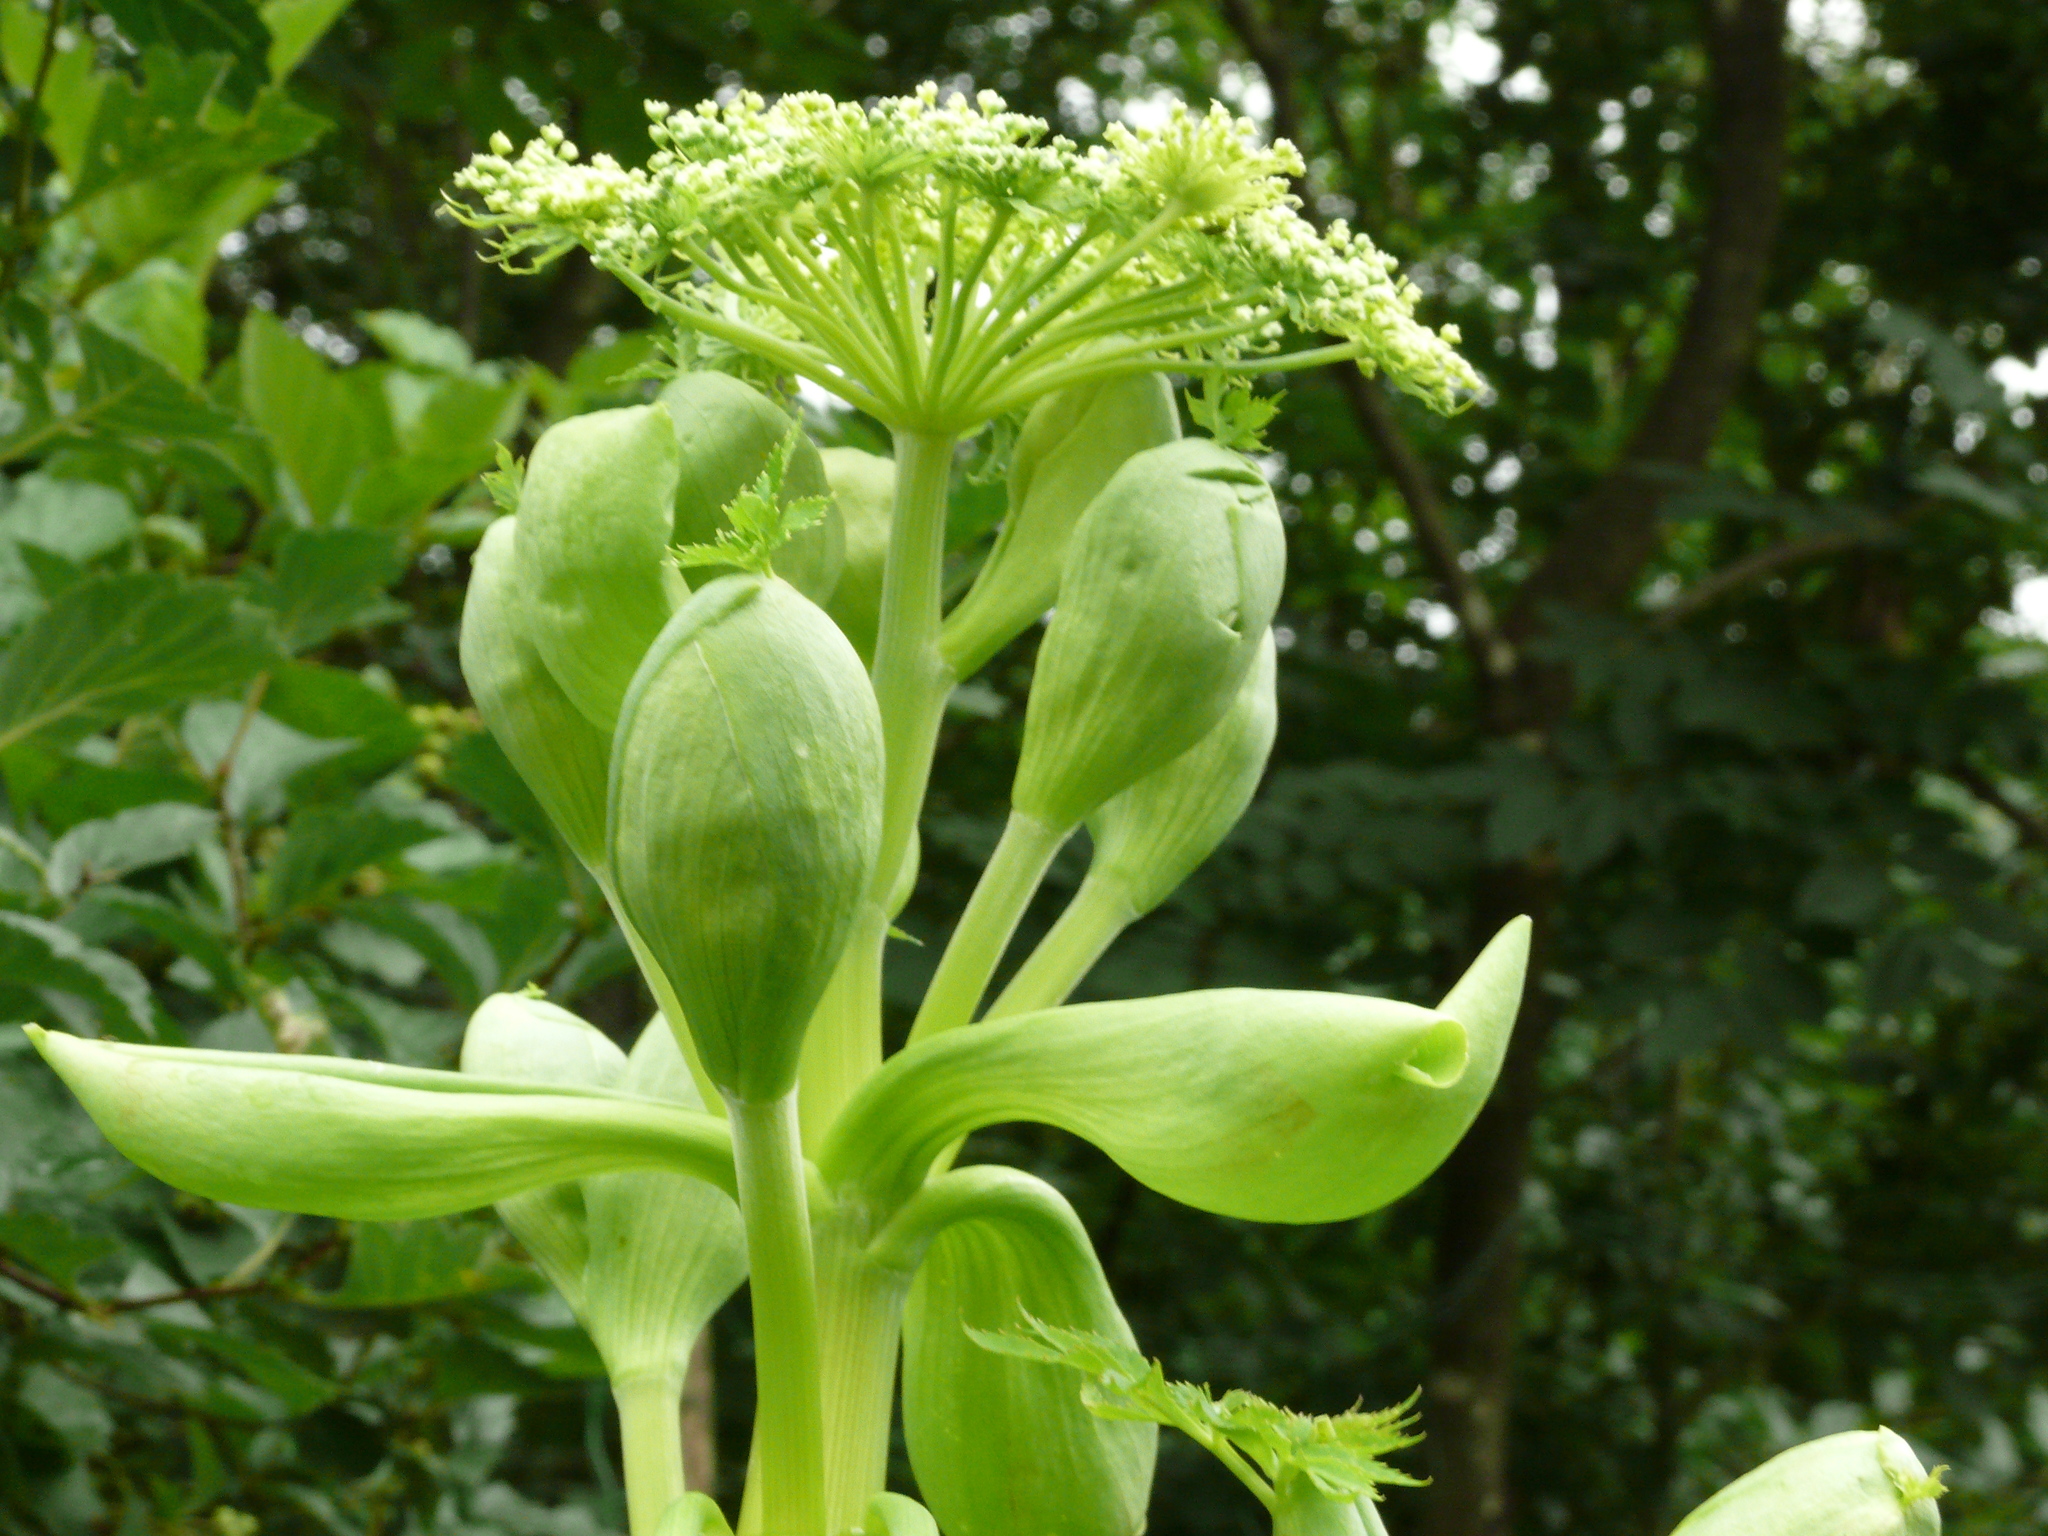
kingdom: Plantae
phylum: Tracheophyta
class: Magnoliopsida
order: Apiales
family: Apiaceae
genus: Angelica
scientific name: Angelica dahurica
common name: Dahurian angelica
